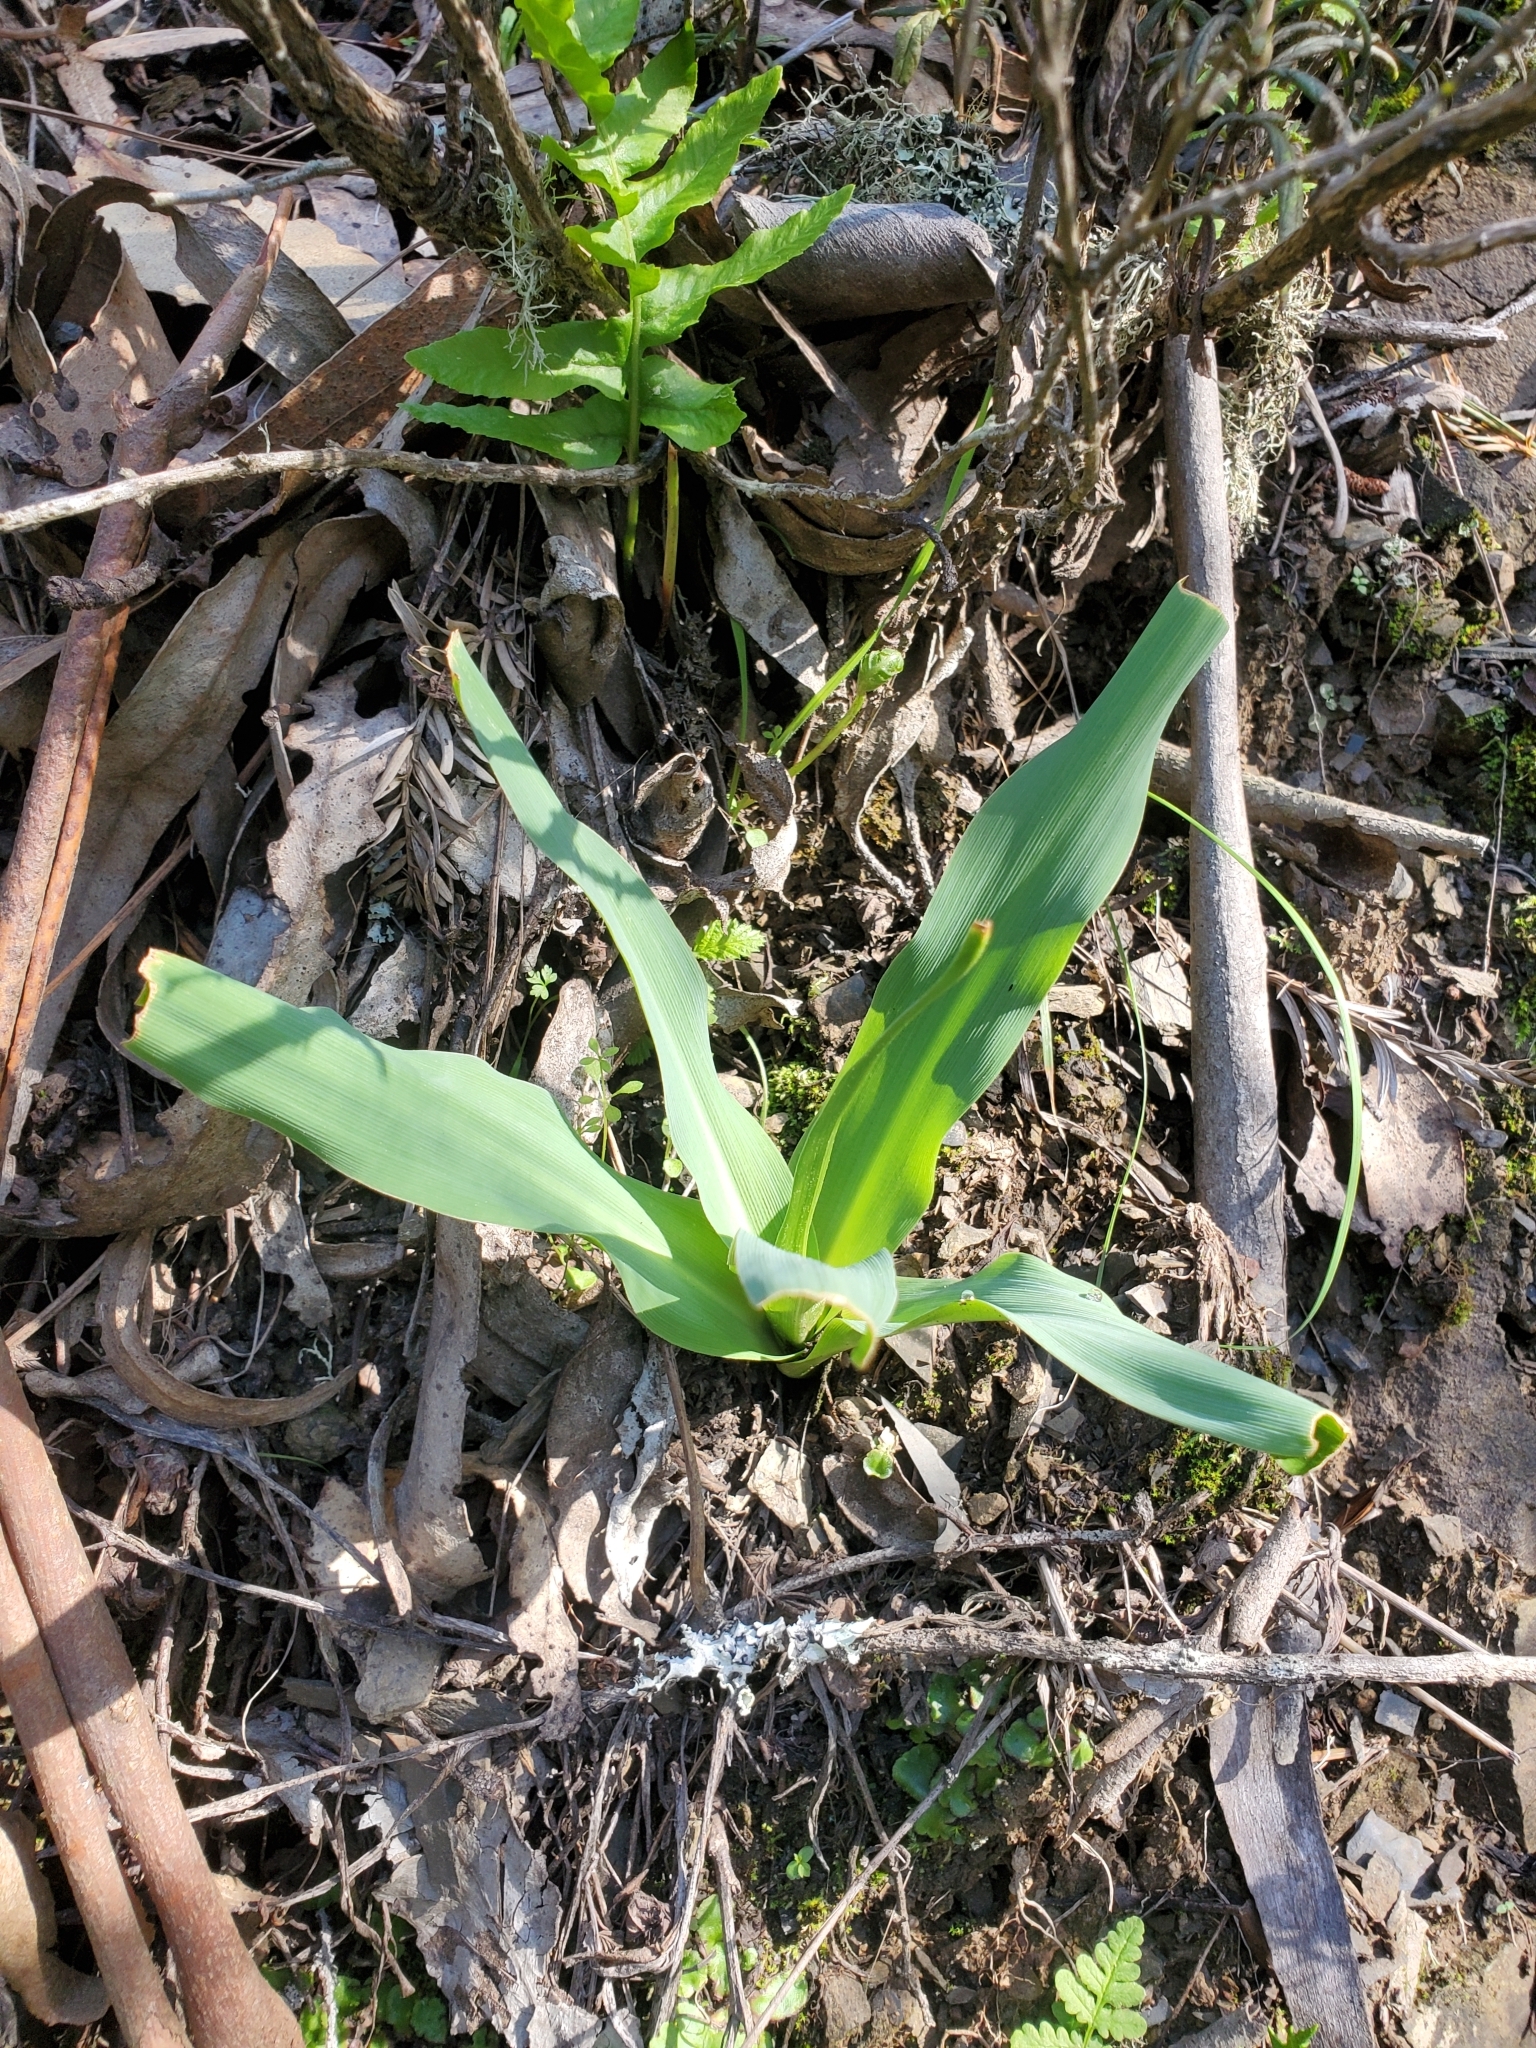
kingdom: Plantae
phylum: Tracheophyta
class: Liliopsida
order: Asparagales
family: Asparagaceae
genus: Chlorogalum
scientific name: Chlorogalum pomeridianum
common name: Amole
